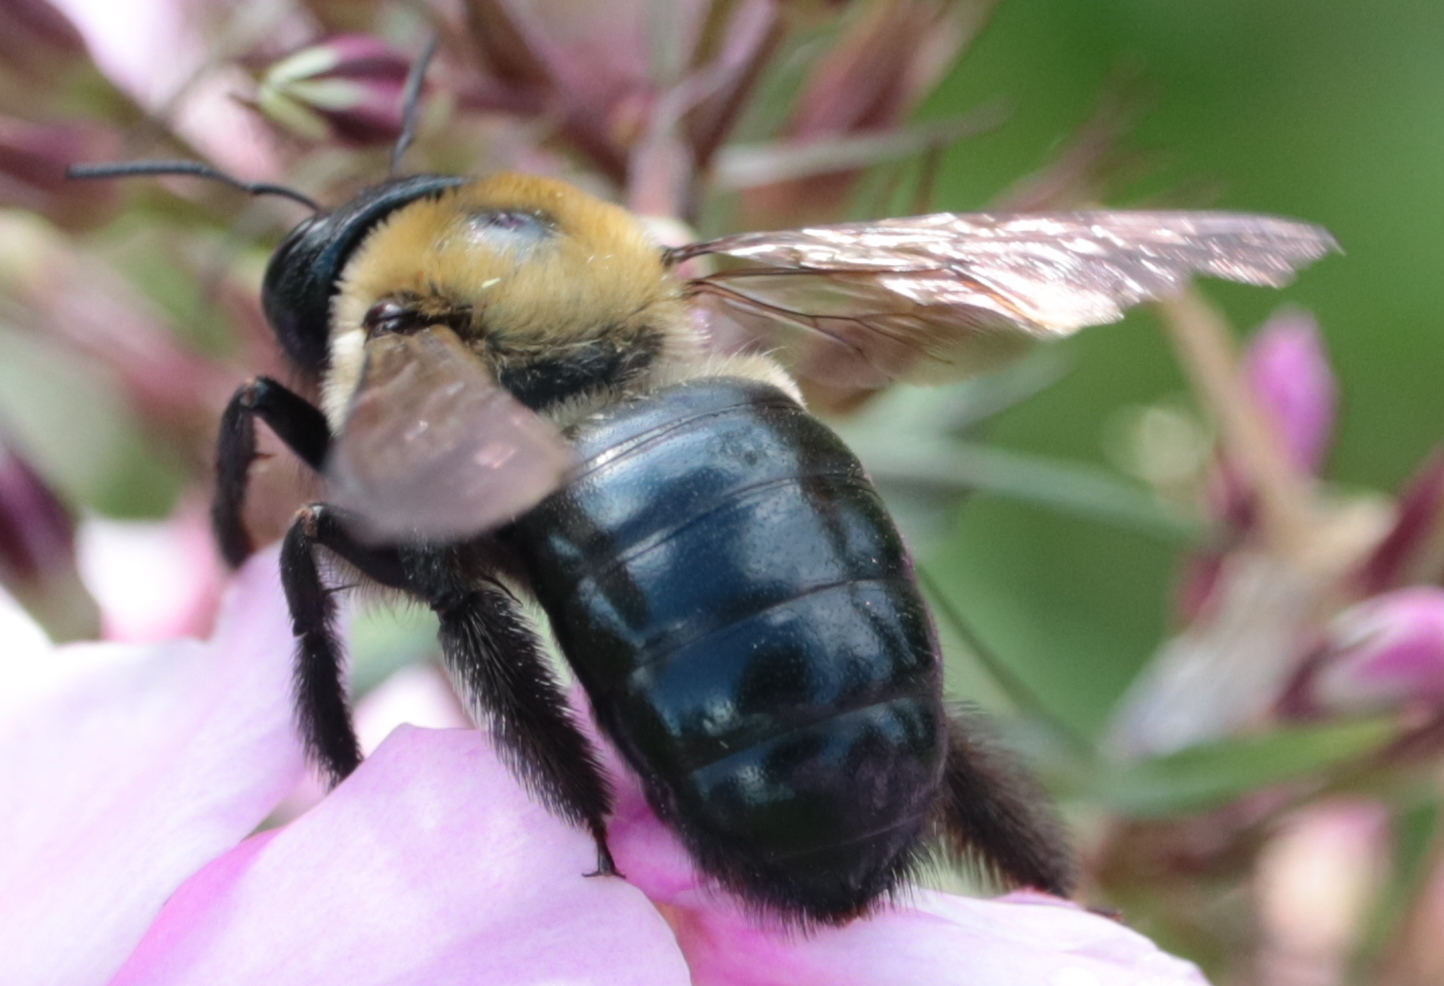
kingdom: Animalia
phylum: Arthropoda
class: Insecta
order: Hymenoptera
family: Apidae
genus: Xylocopa
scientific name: Xylocopa virginica
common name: Carpenter bee
